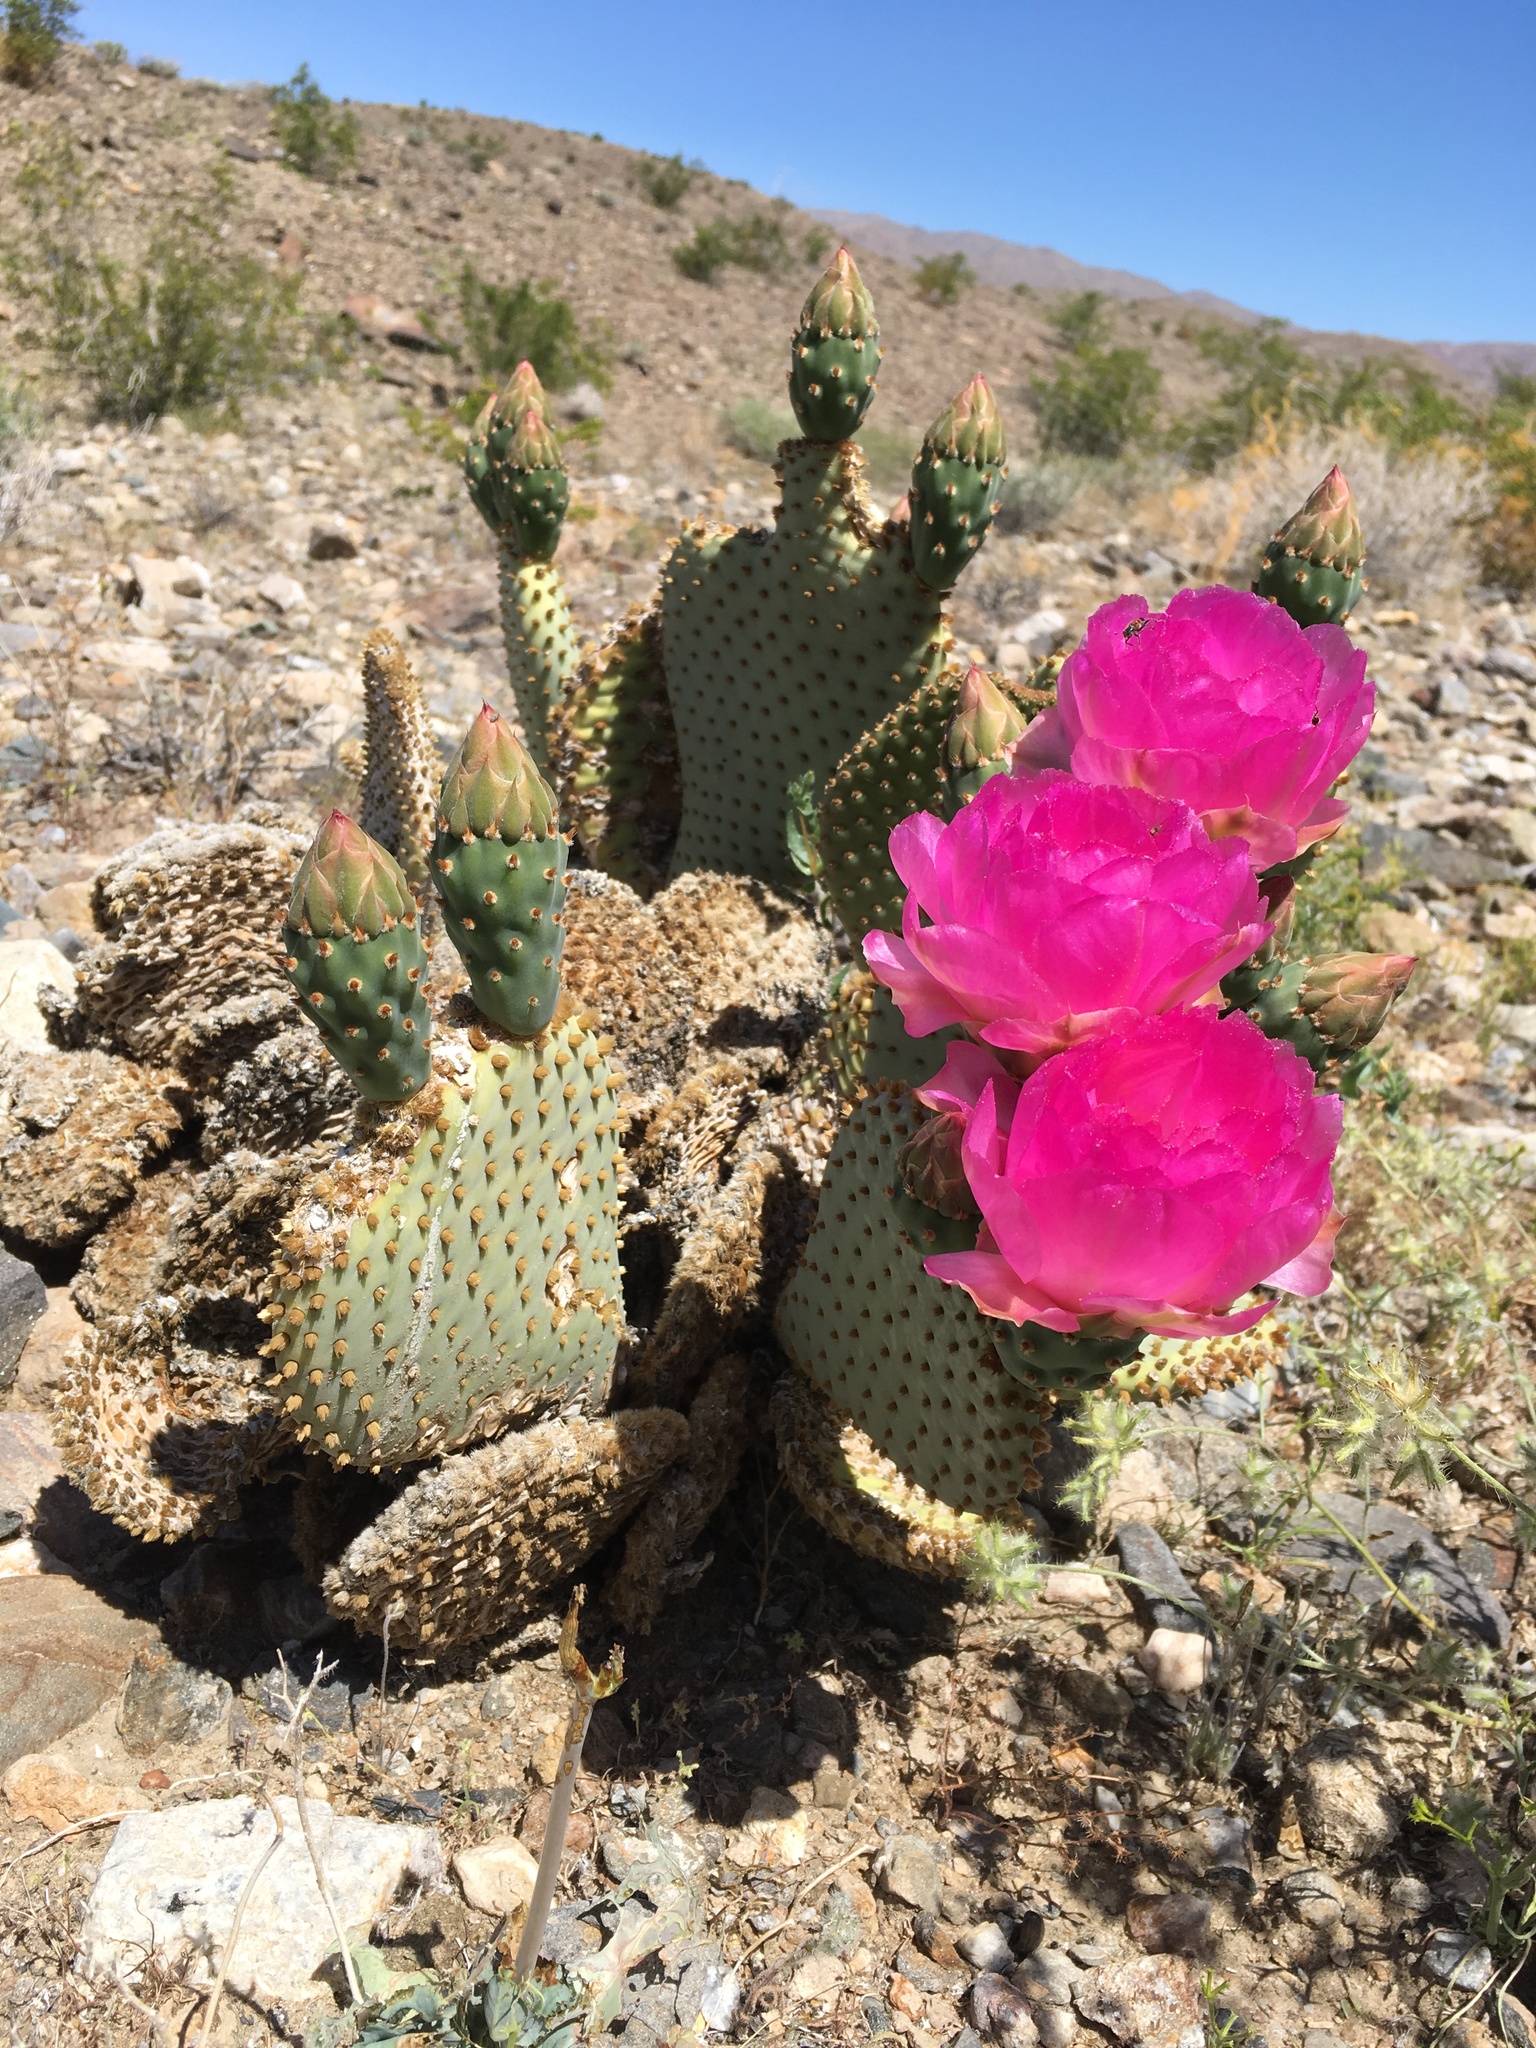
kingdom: Plantae
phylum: Tracheophyta
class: Magnoliopsida
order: Caryophyllales
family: Cactaceae
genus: Opuntia
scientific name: Opuntia basilaris
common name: Beavertail prickly-pear
